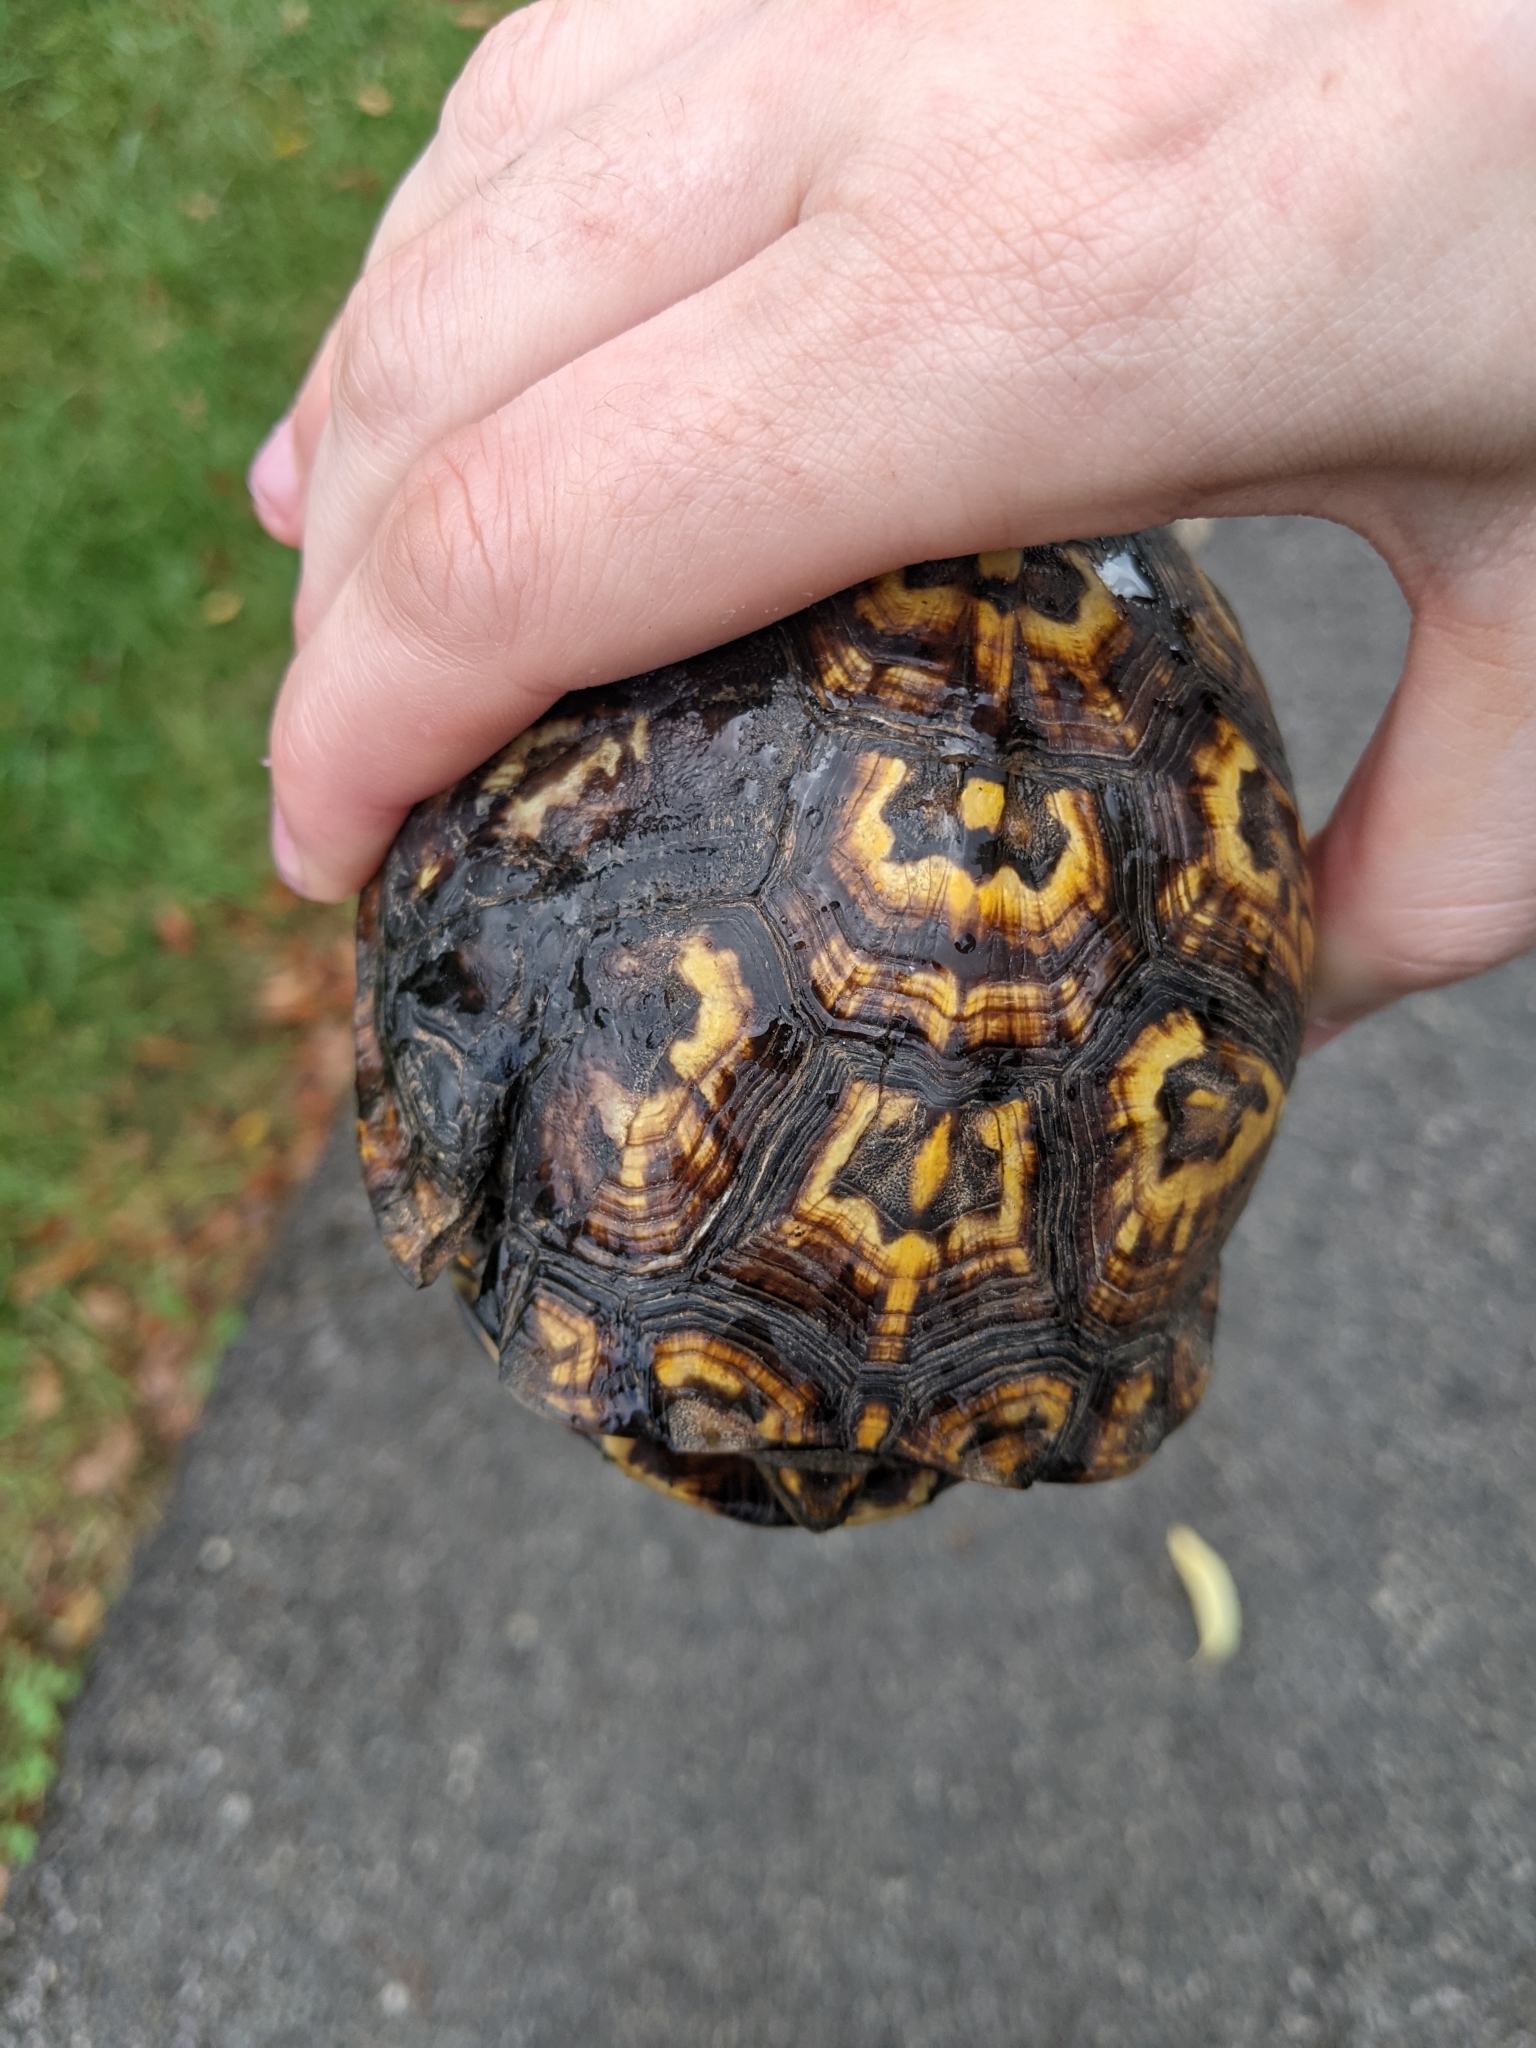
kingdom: Animalia
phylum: Chordata
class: Testudines
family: Emydidae
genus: Terrapene
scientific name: Terrapene carolina
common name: Common box turtle
